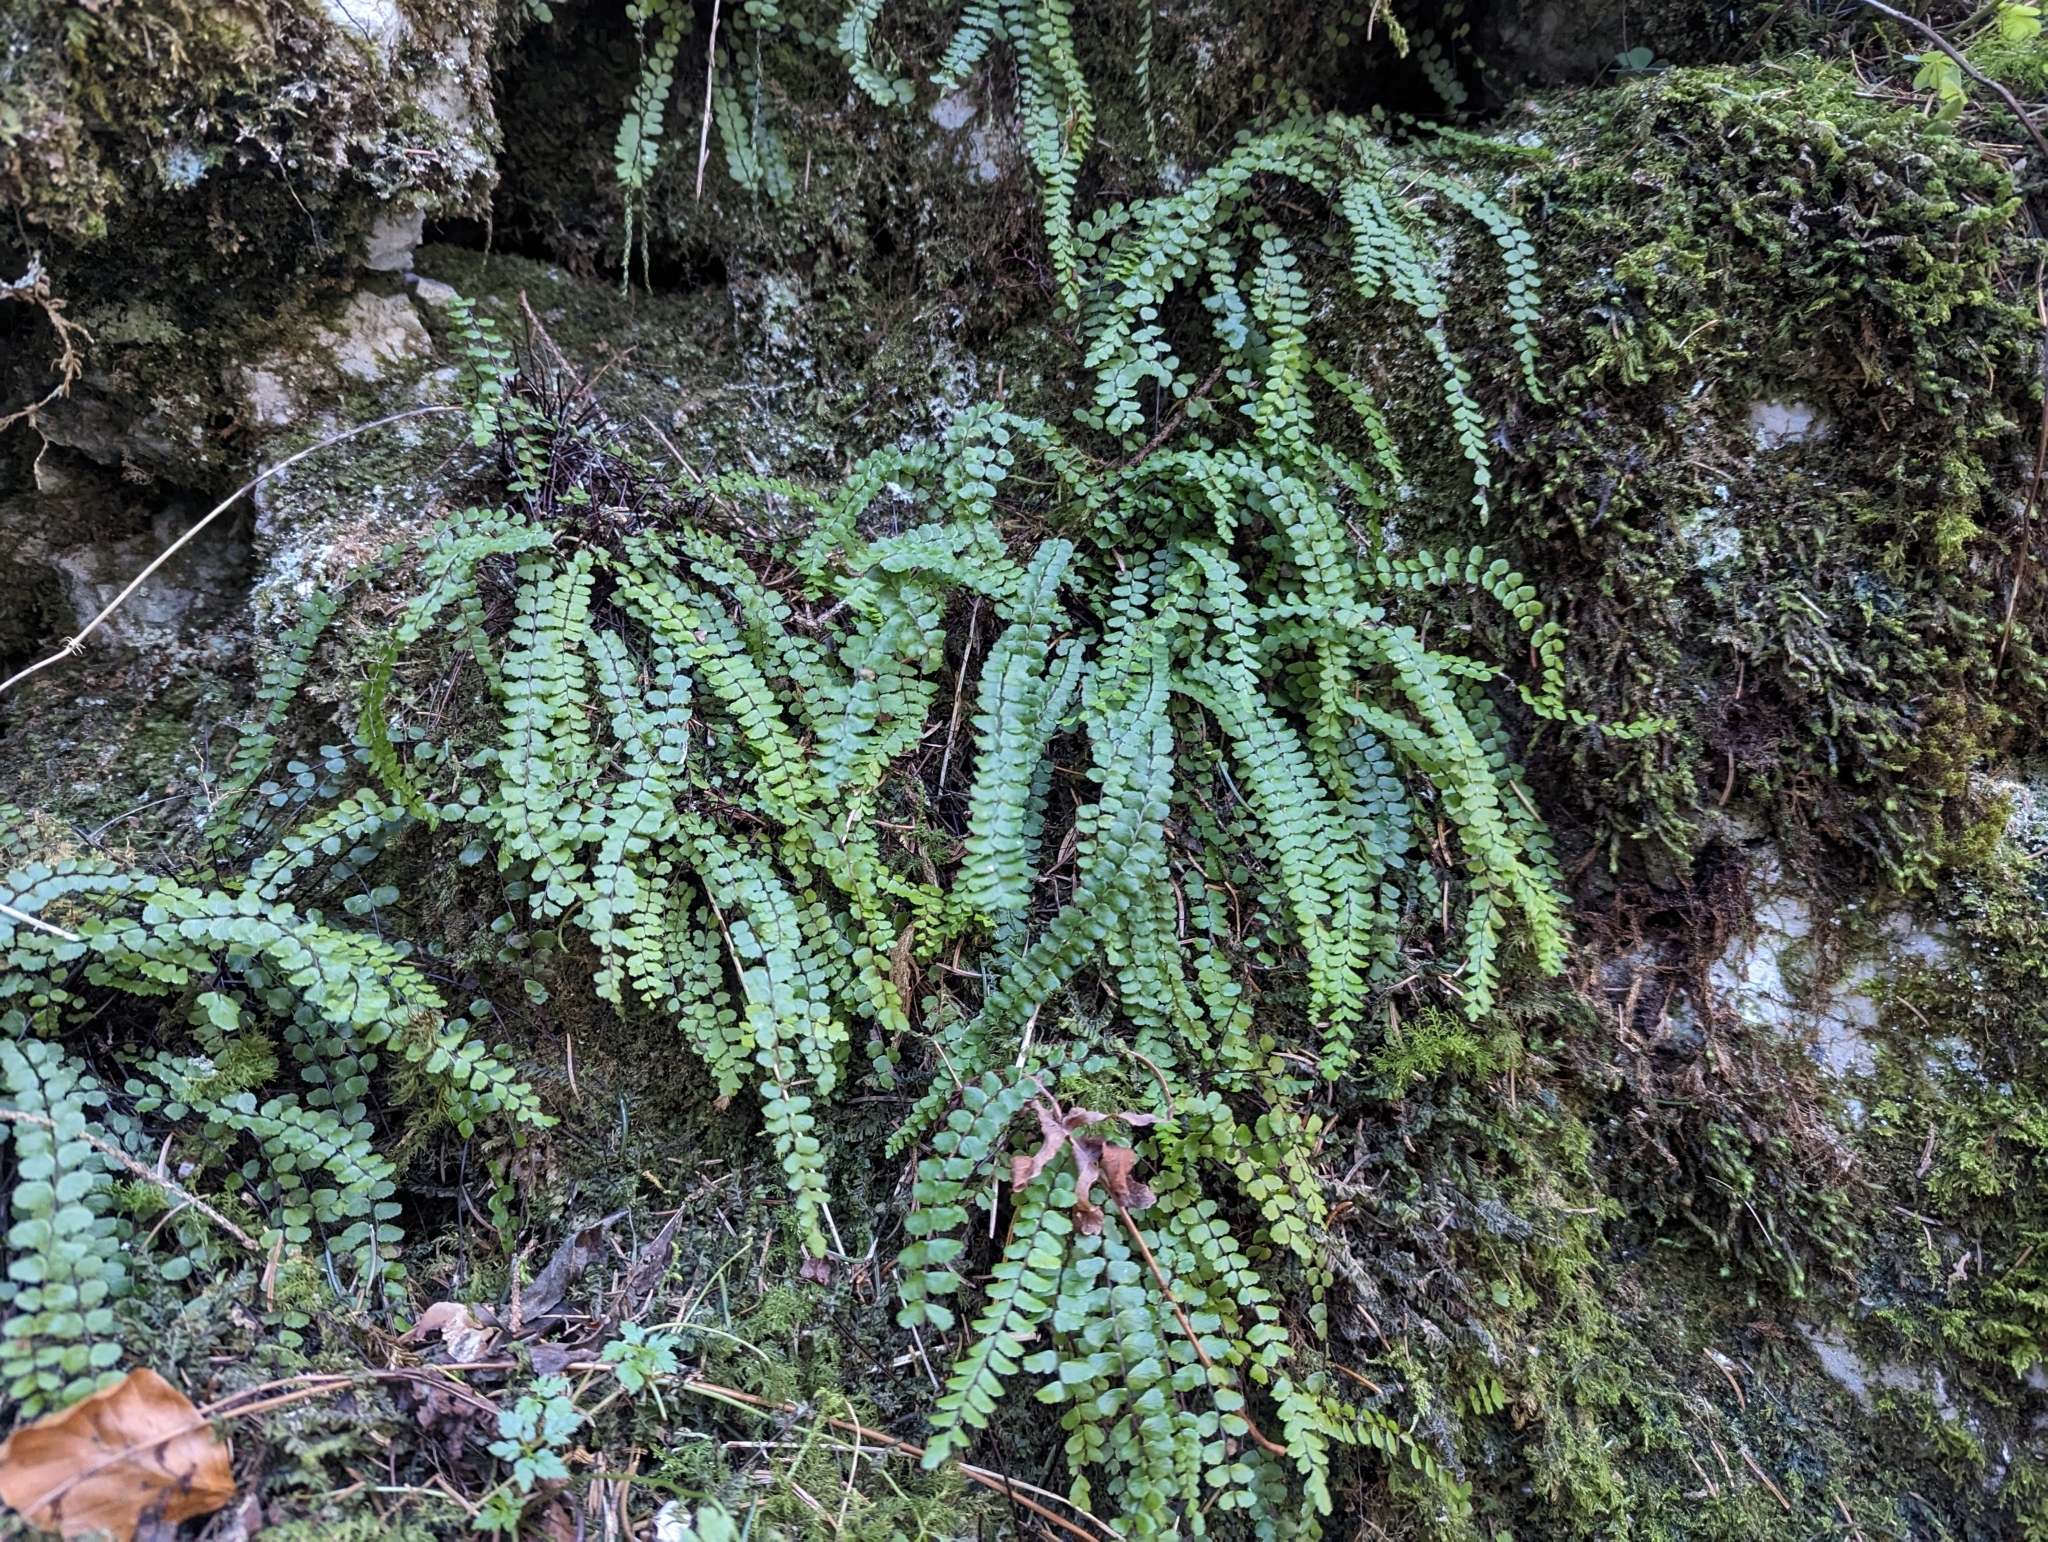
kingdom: Plantae
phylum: Tracheophyta
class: Polypodiopsida
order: Polypodiales
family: Aspleniaceae
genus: Asplenium
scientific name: Asplenium trichomanes
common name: Maidenhair spleenwort
